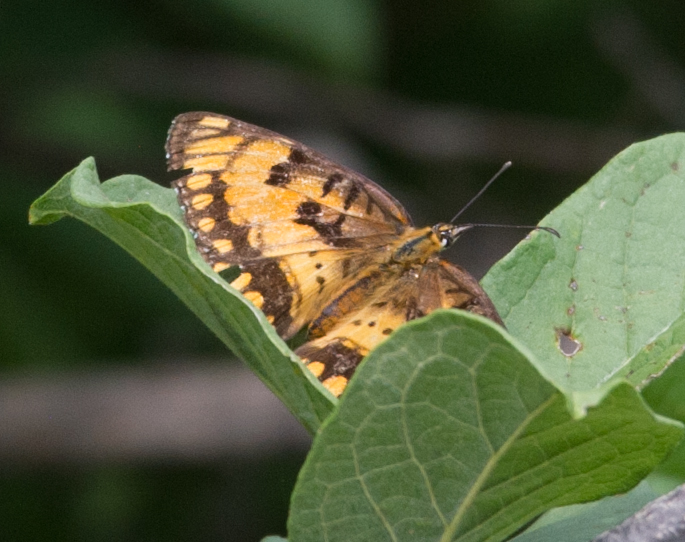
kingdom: Animalia
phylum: Arthropoda
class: Insecta
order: Lepidoptera
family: Nymphalidae
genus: Byblia
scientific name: Byblia ilithyia
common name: Spotted joker
